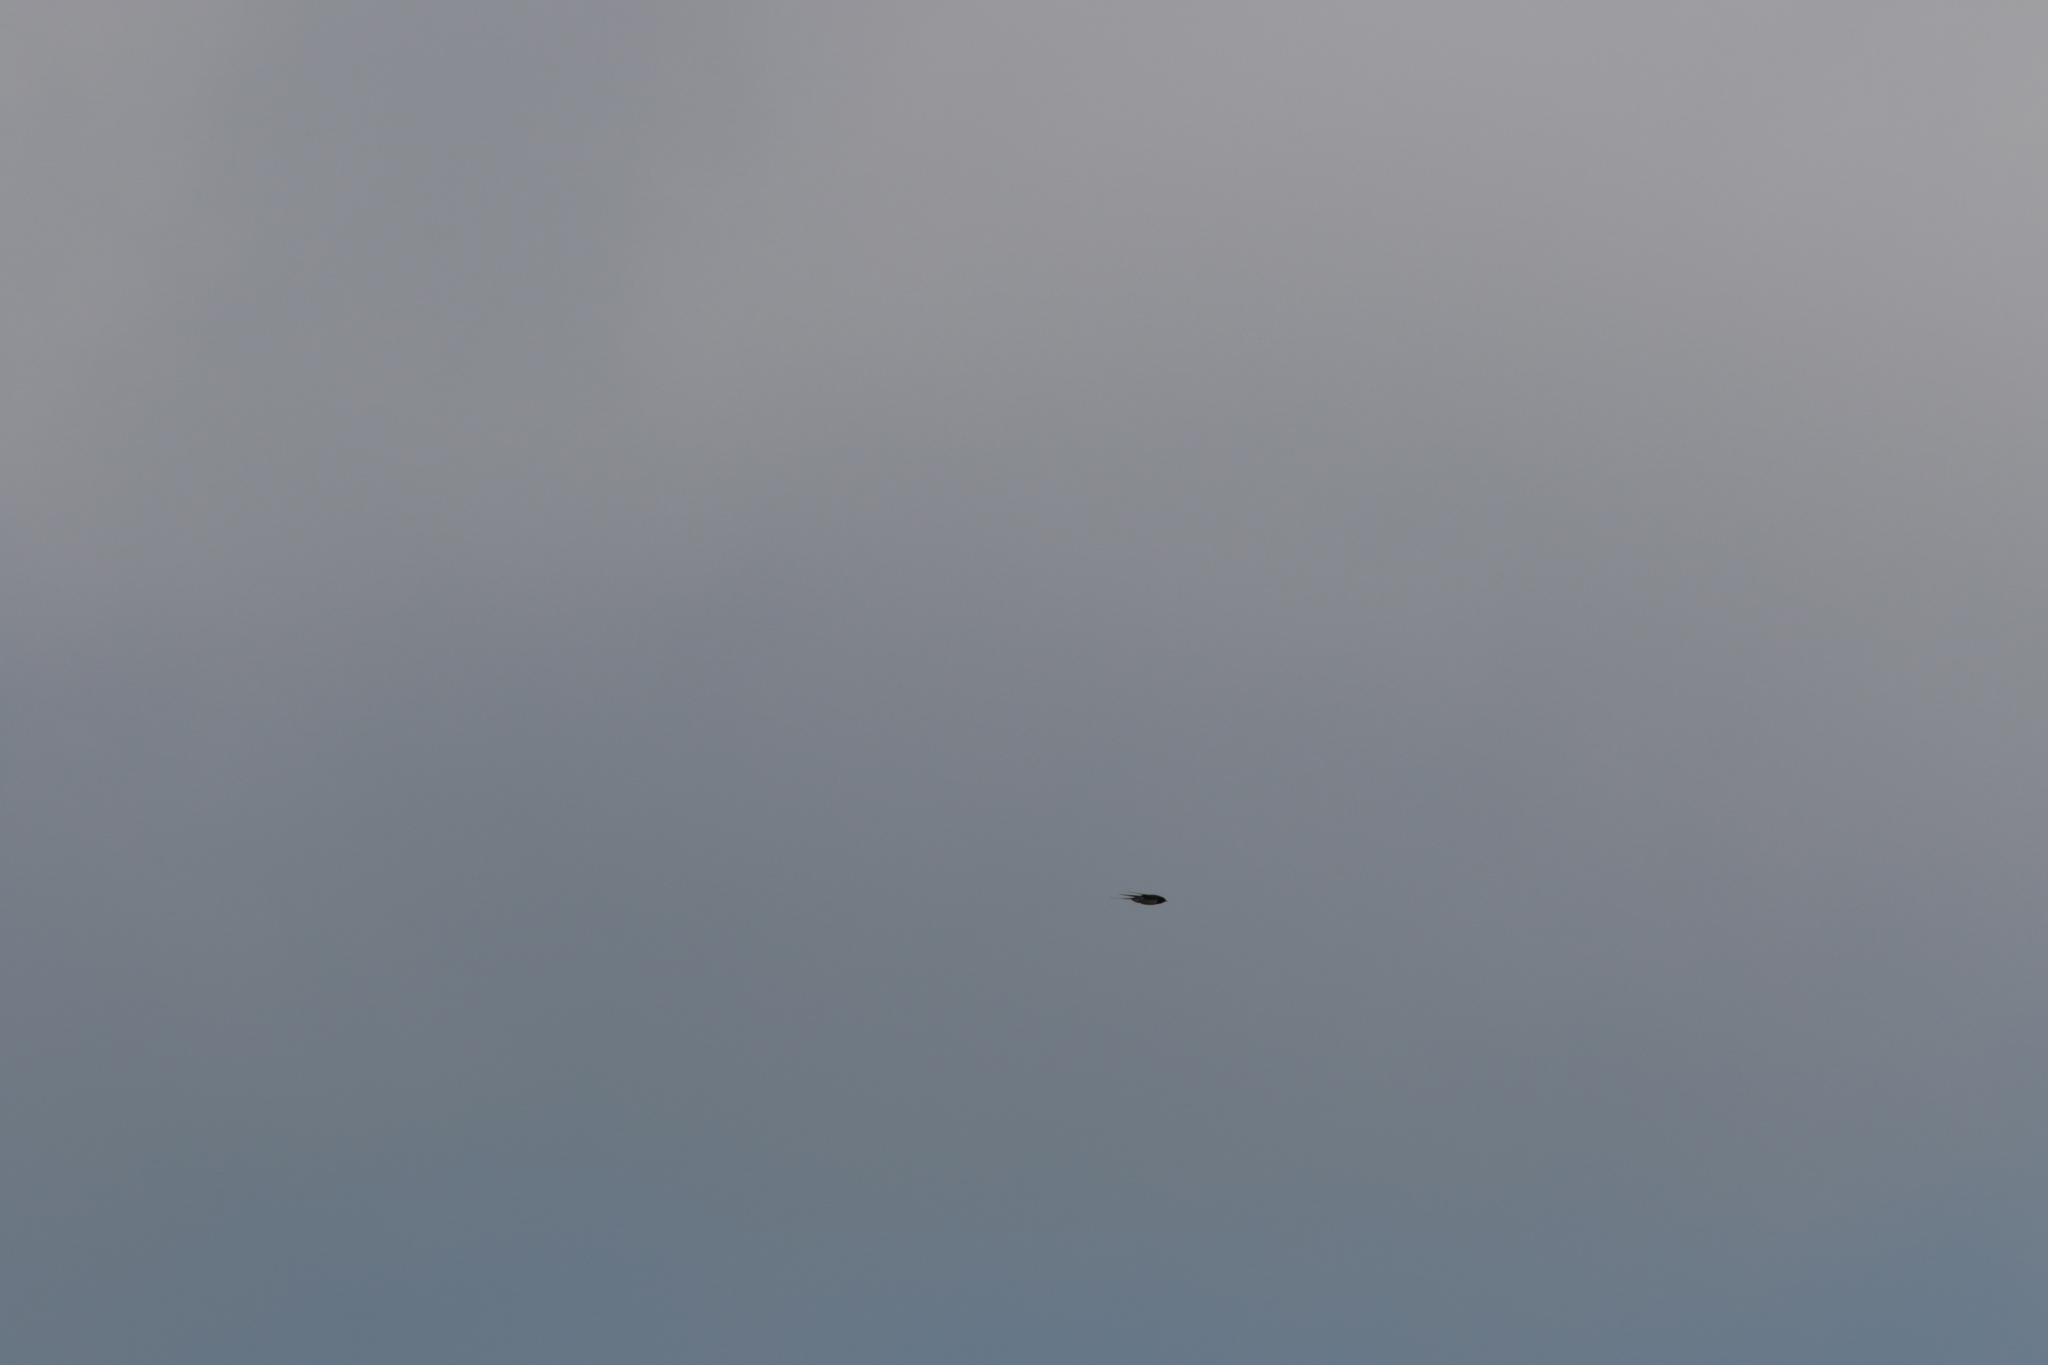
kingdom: Animalia
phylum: Chordata
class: Aves
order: Passeriformes
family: Hirundinidae
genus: Hirundo
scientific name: Hirundo rustica
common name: Barn swallow
